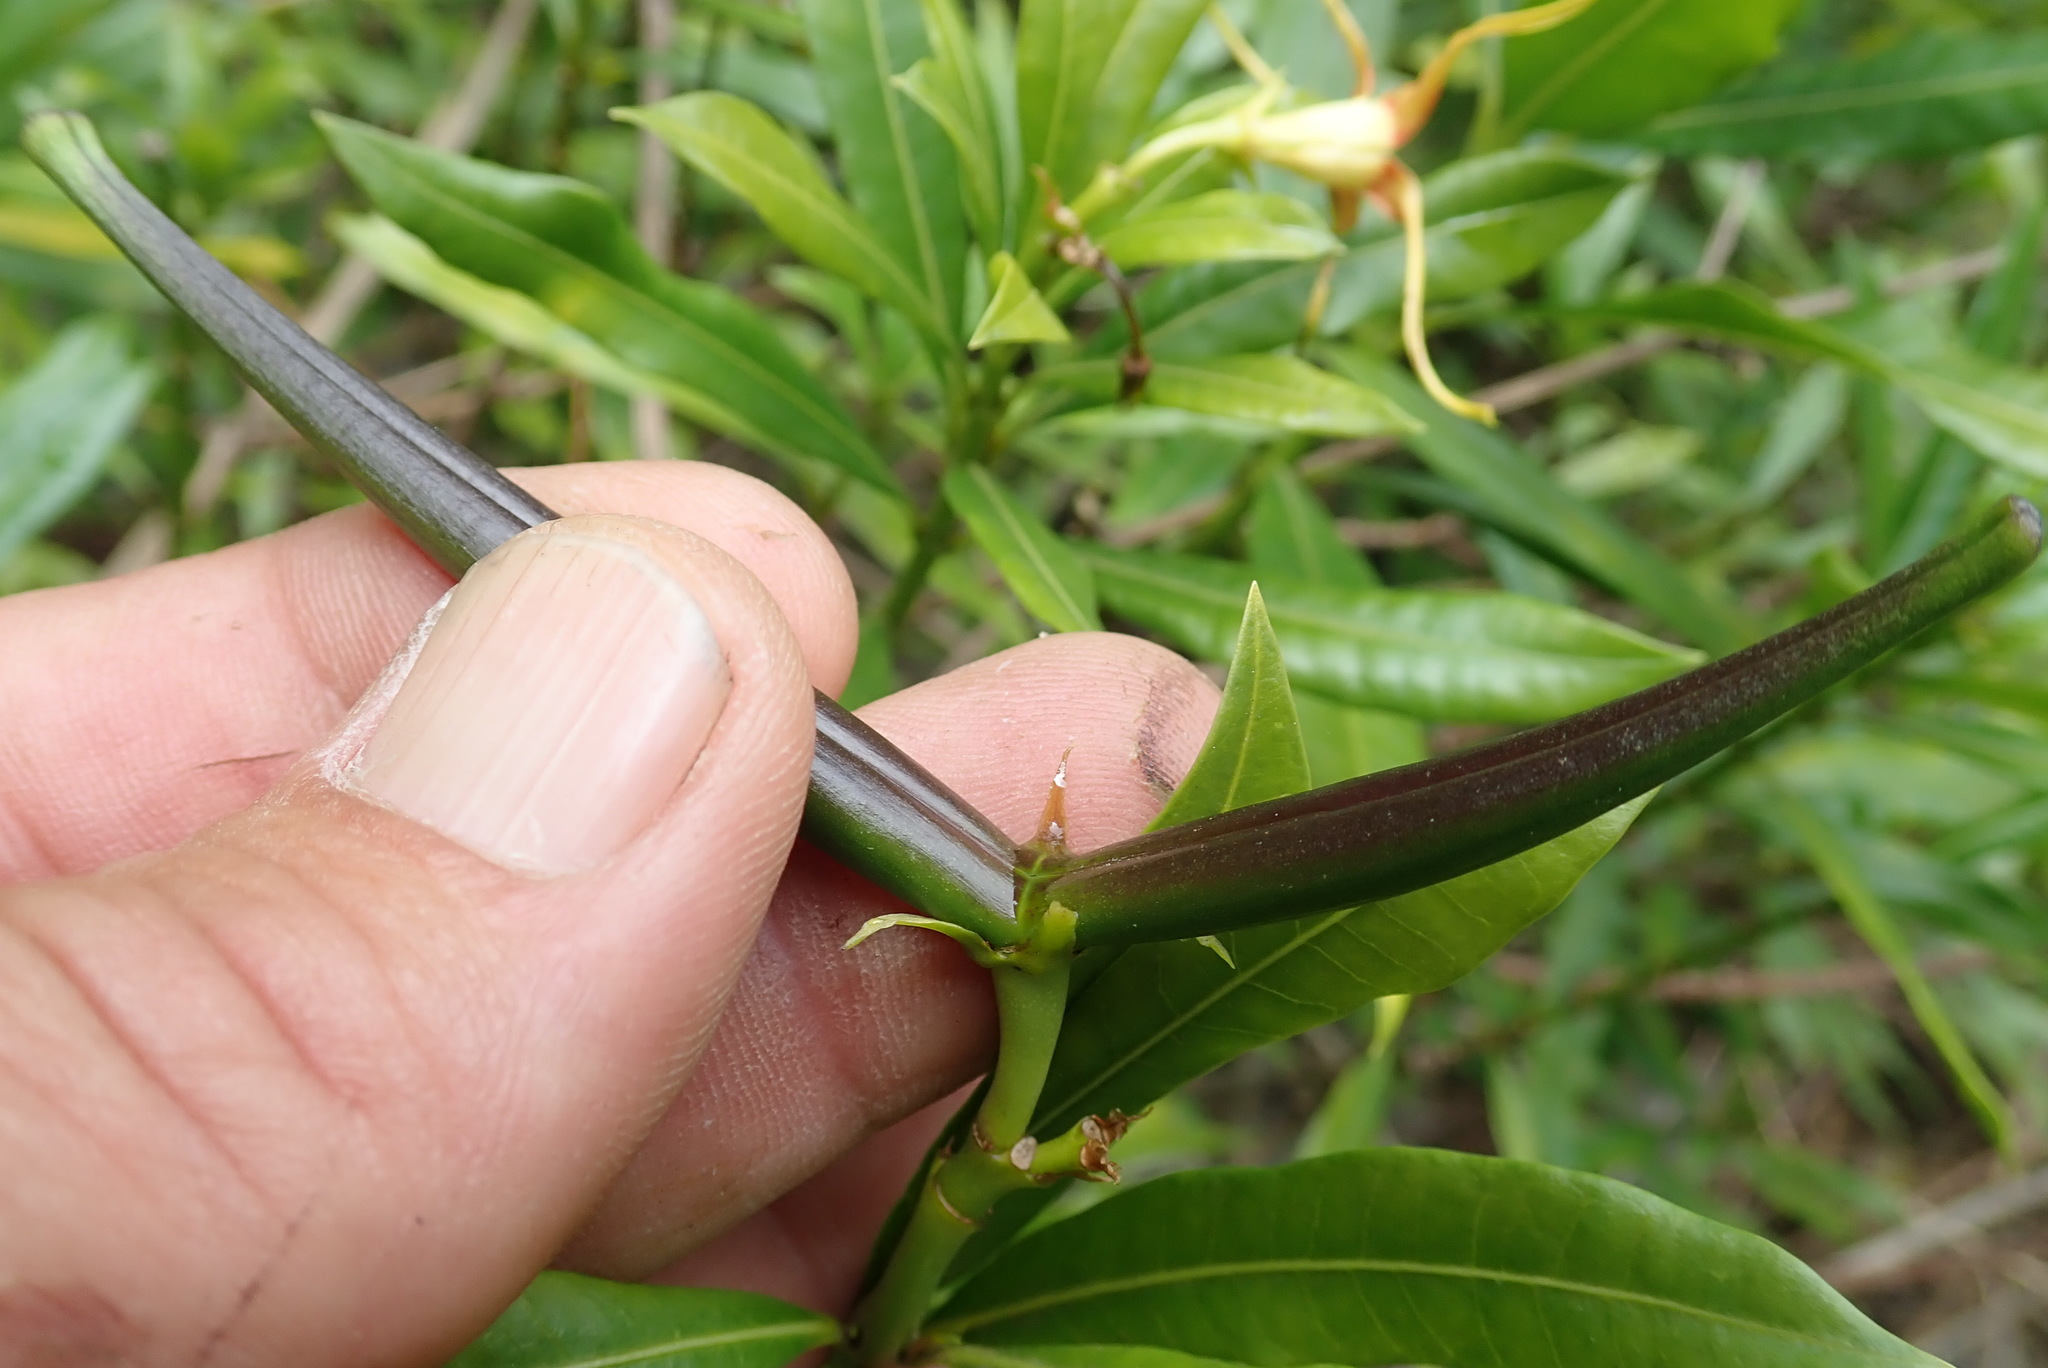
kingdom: Plantae
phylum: Tracheophyta
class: Magnoliopsida
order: Gentianales
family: Apocynaceae
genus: Strophanthus
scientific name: Strophanthus speciosus
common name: Common poisonrope
